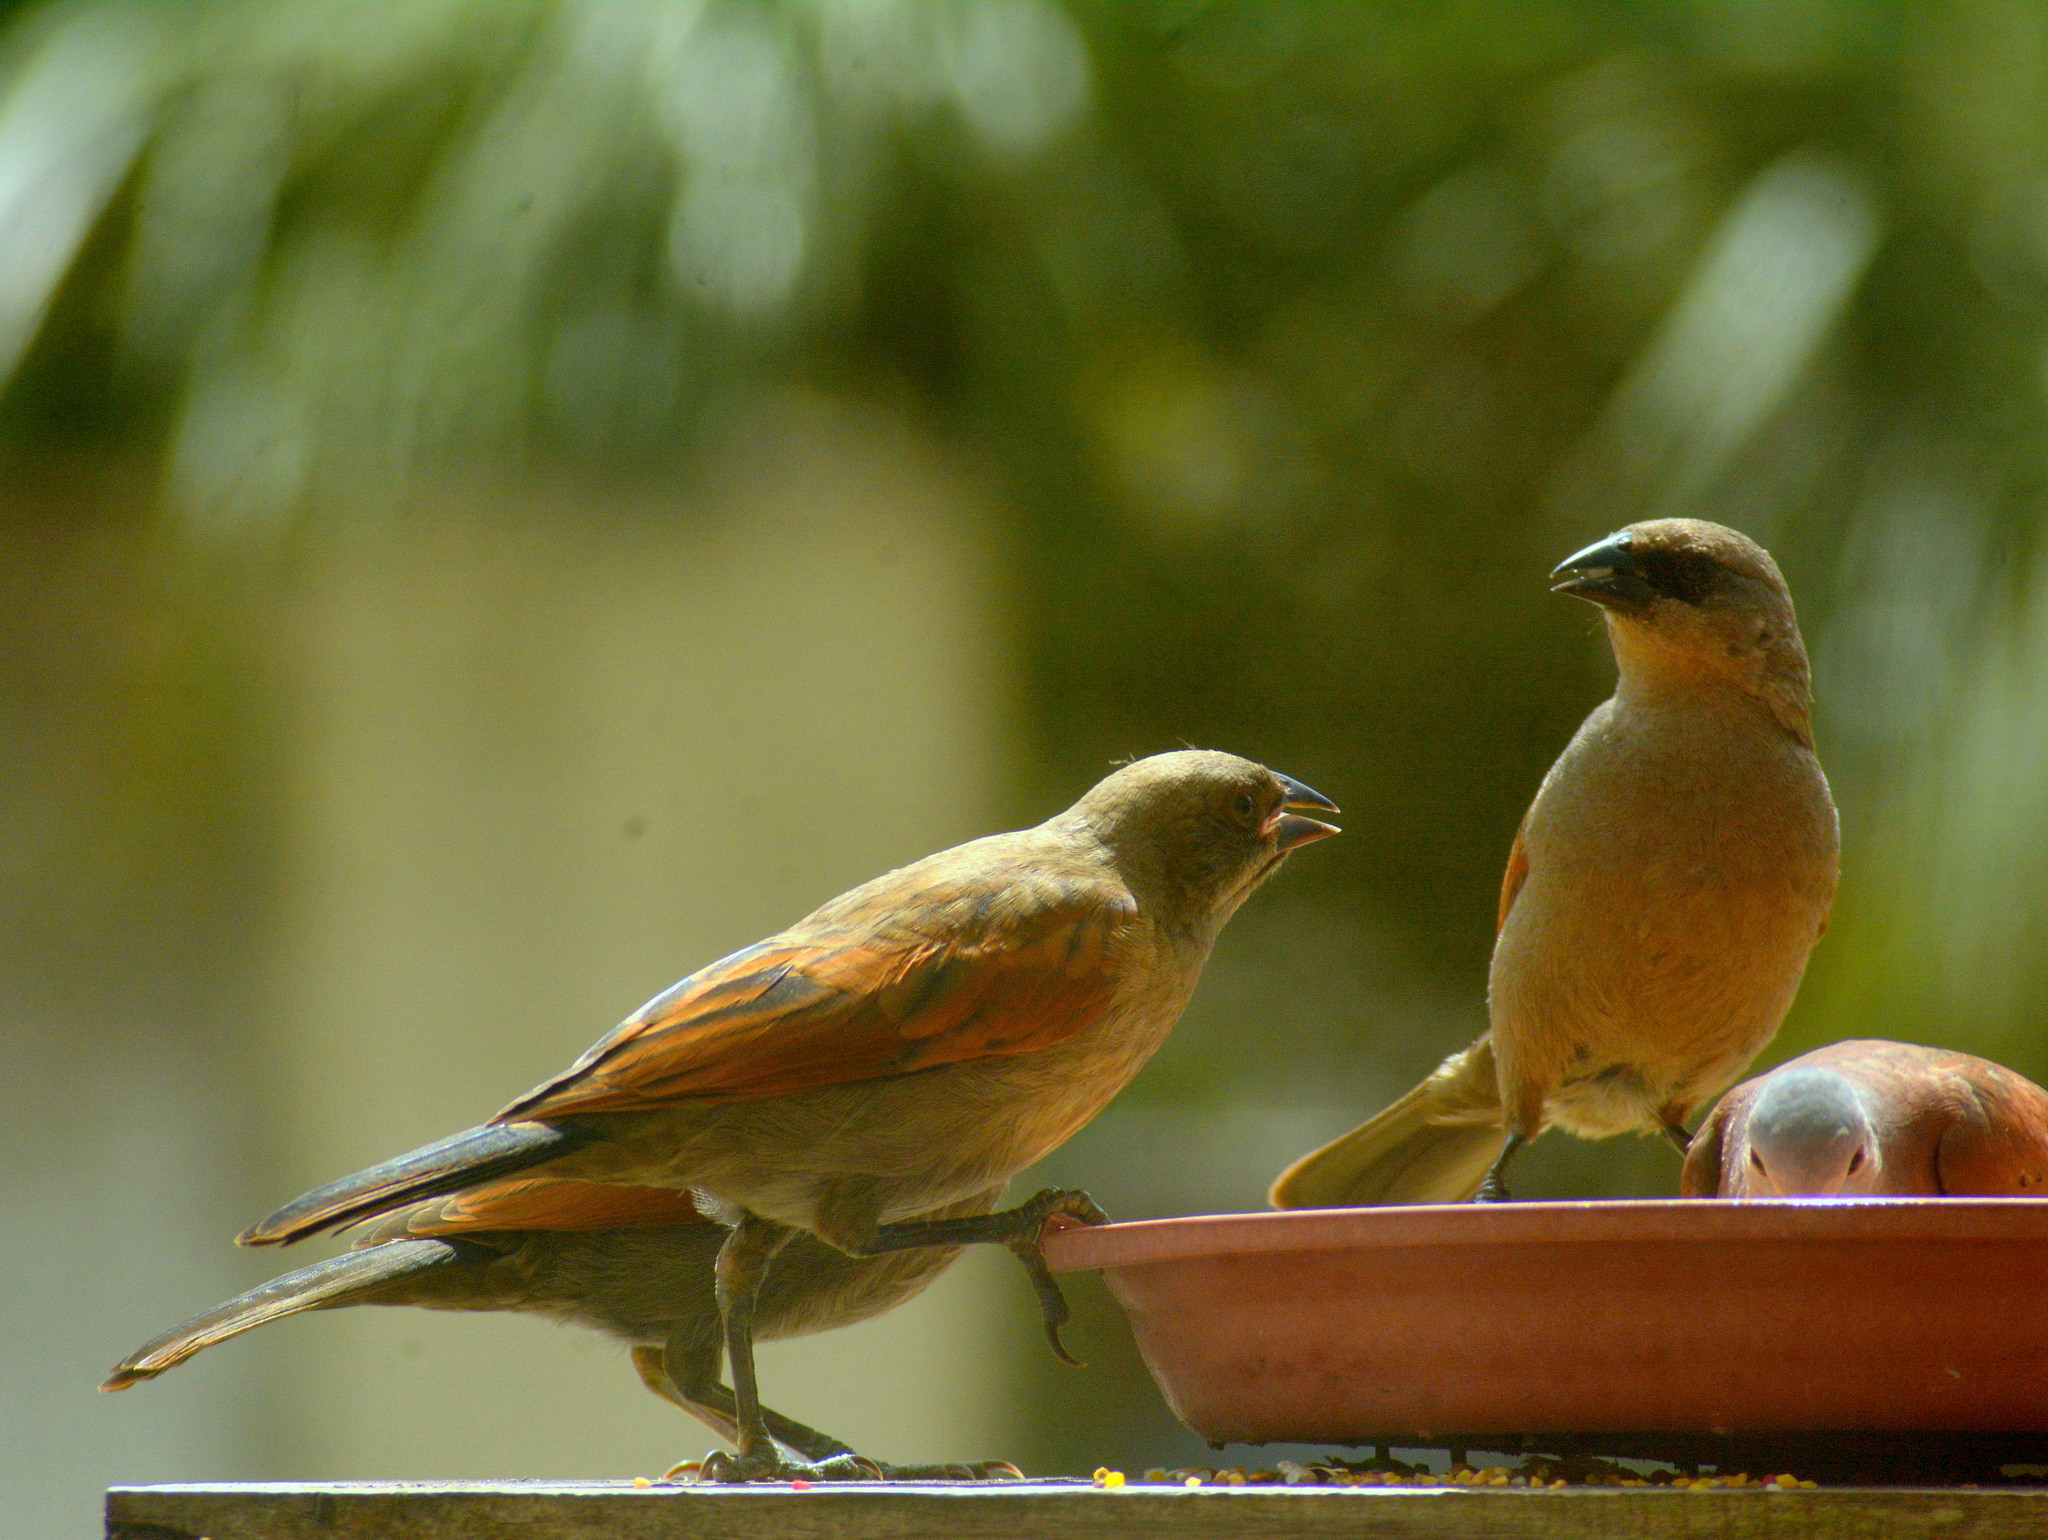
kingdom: Animalia
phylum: Chordata
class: Aves
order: Passeriformes
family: Icteridae
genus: Molothrus
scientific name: Molothrus rufoaxillaris
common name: Screaming cowbird
